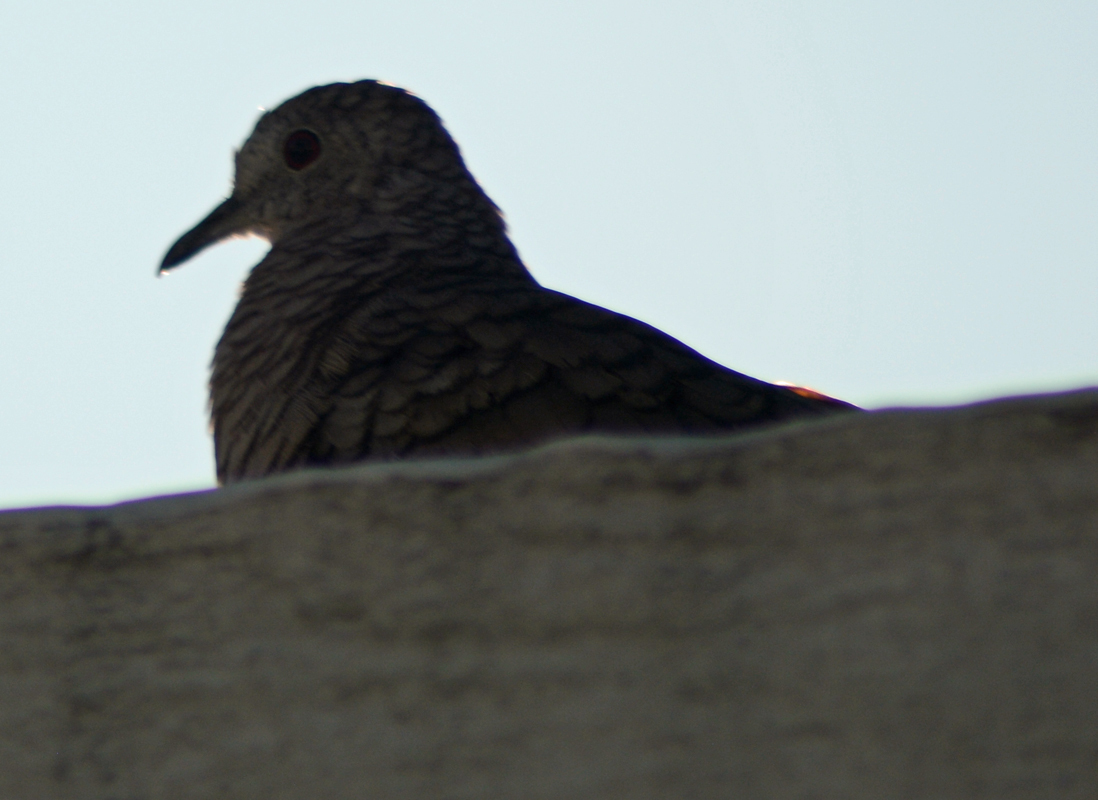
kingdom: Animalia
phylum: Chordata
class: Aves
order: Columbiformes
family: Columbidae
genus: Columbina
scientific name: Columbina inca
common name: Inca dove
